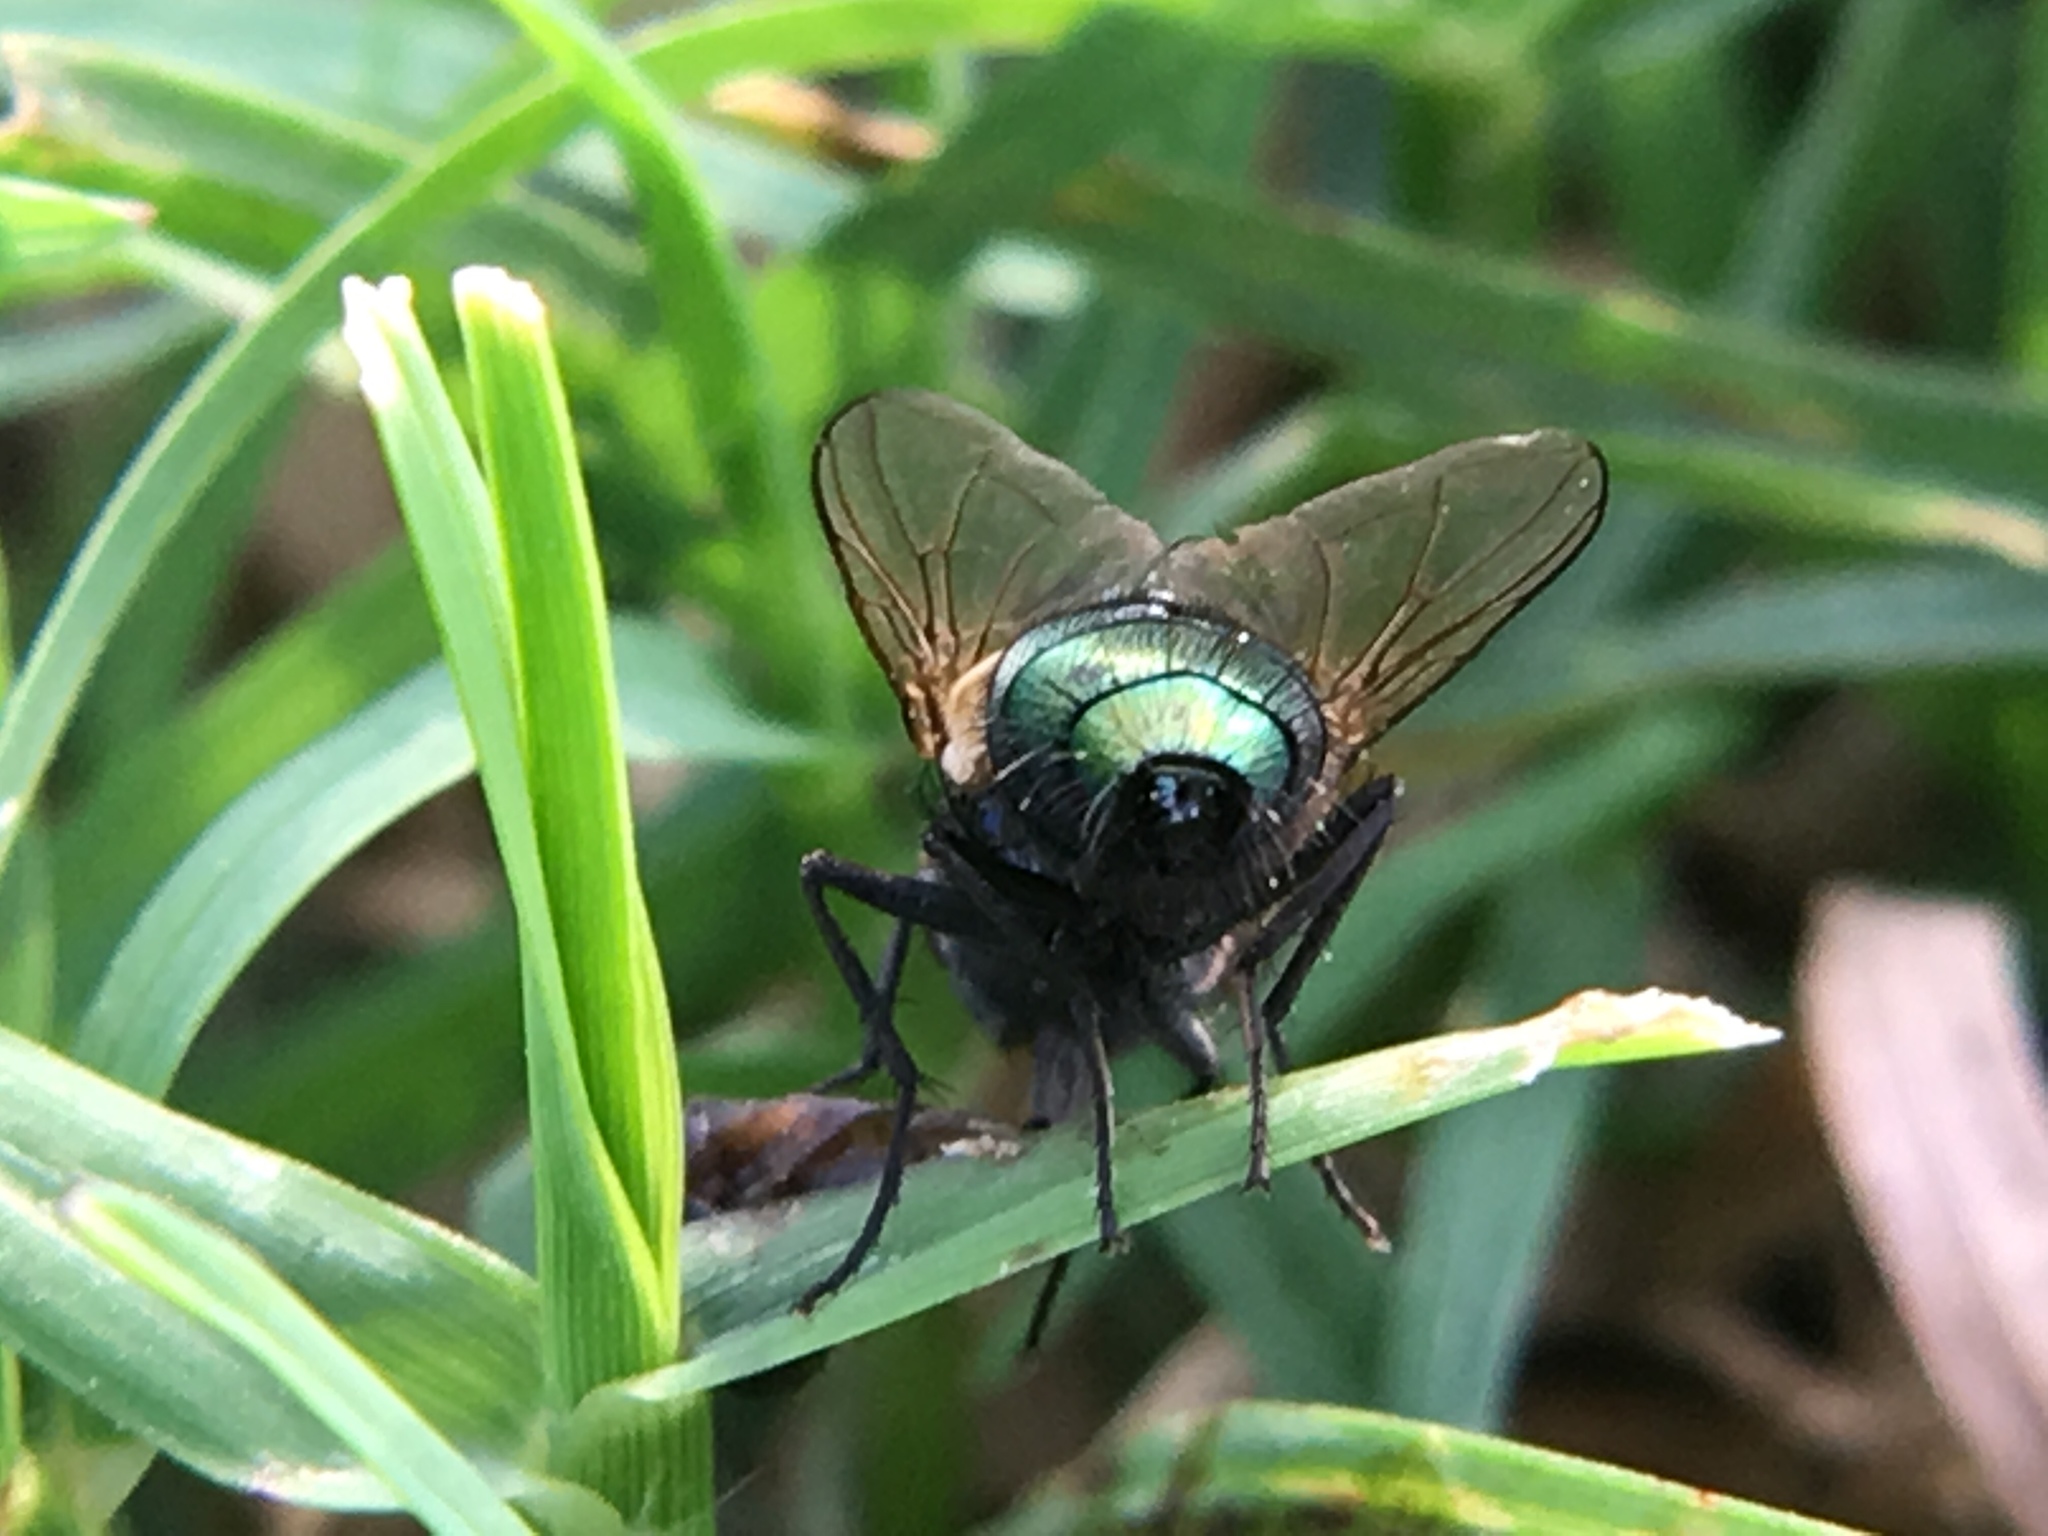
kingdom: Animalia
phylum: Arthropoda
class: Insecta
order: Diptera
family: Calliphoridae
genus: Lucilia
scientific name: Lucilia sericata
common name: Blow fly
